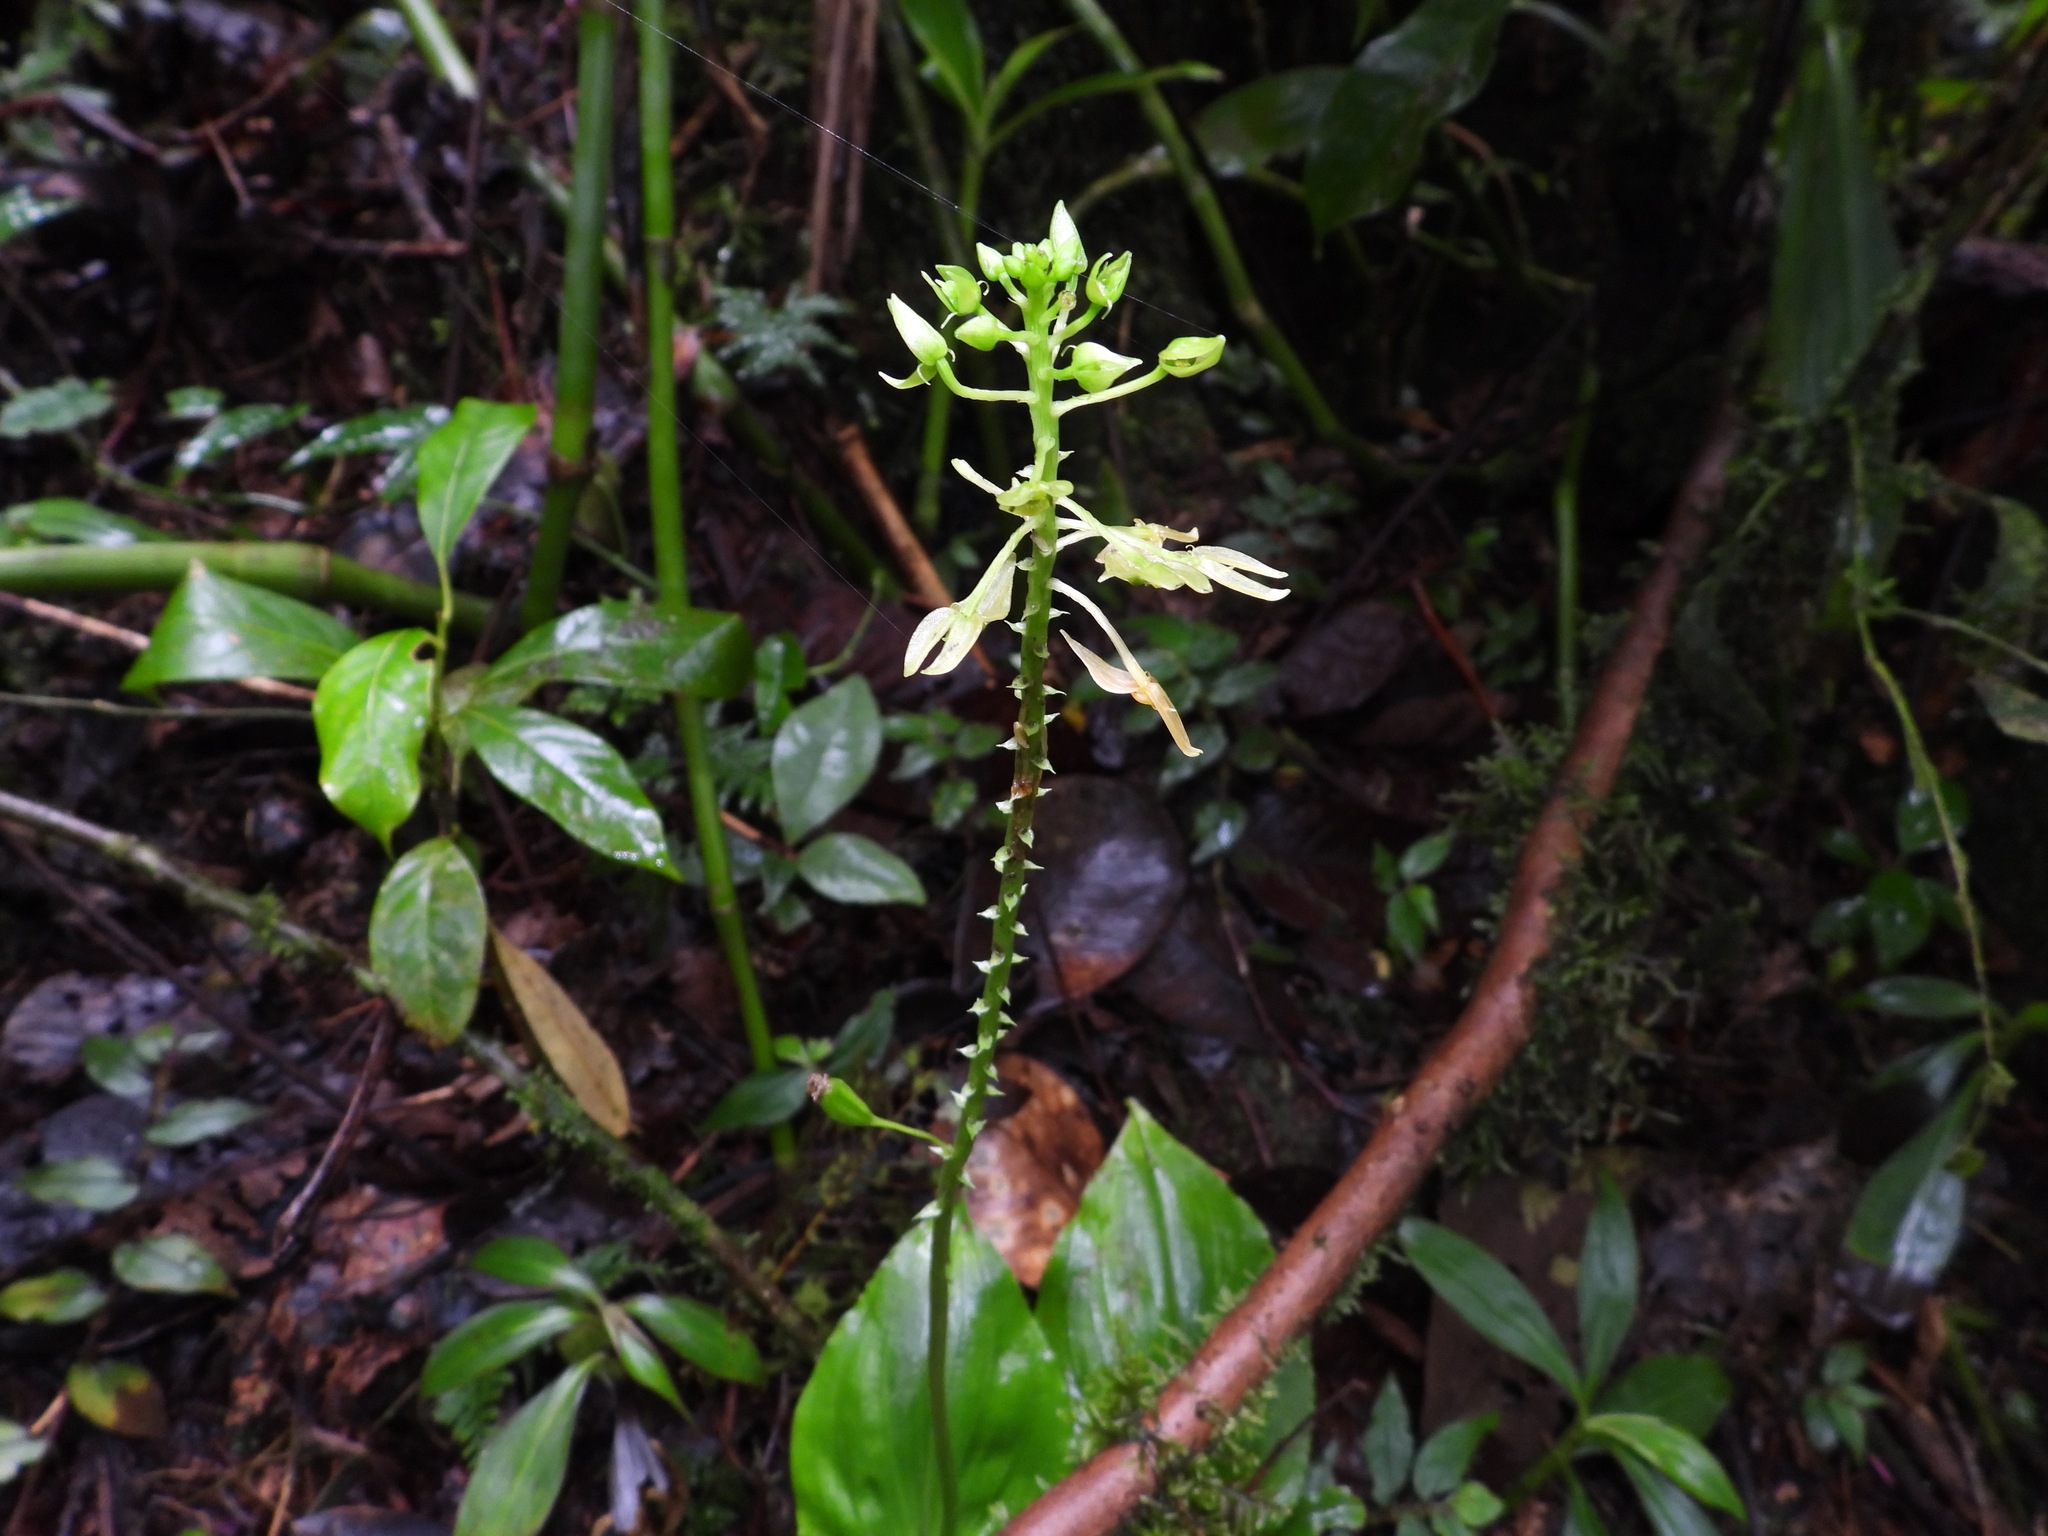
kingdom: Plantae
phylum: Tracheophyta
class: Liliopsida
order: Asparagales
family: Orchidaceae
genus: Malaxis
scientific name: Malaxis maxonii
